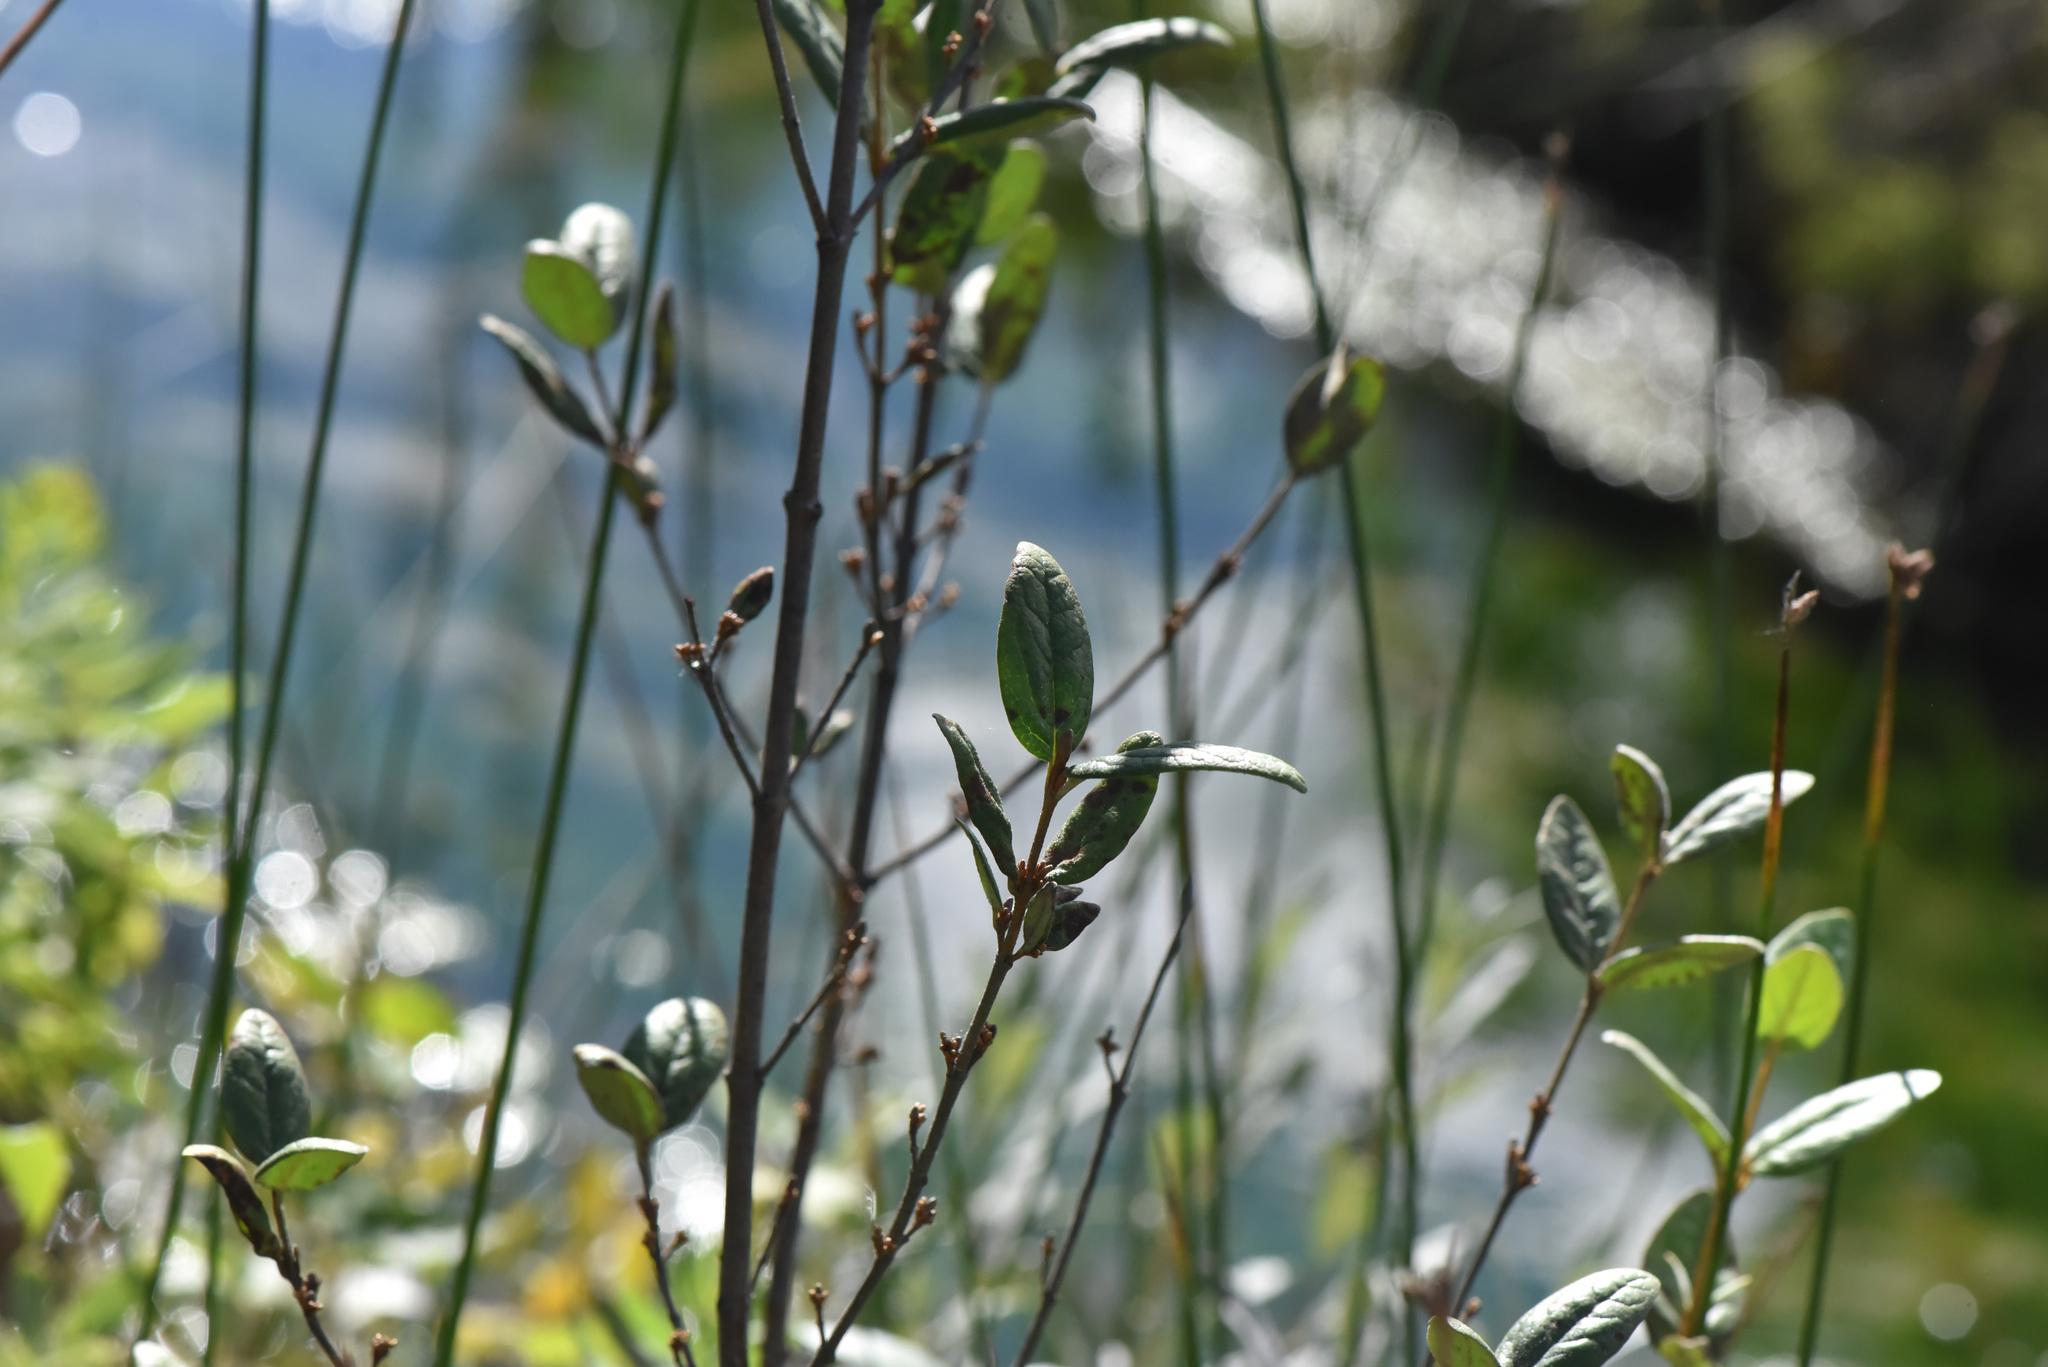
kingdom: Plantae
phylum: Tracheophyta
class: Magnoliopsida
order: Rosales
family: Elaeagnaceae
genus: Shepherdia
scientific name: Shepherdia canadensis
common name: Soapberry
